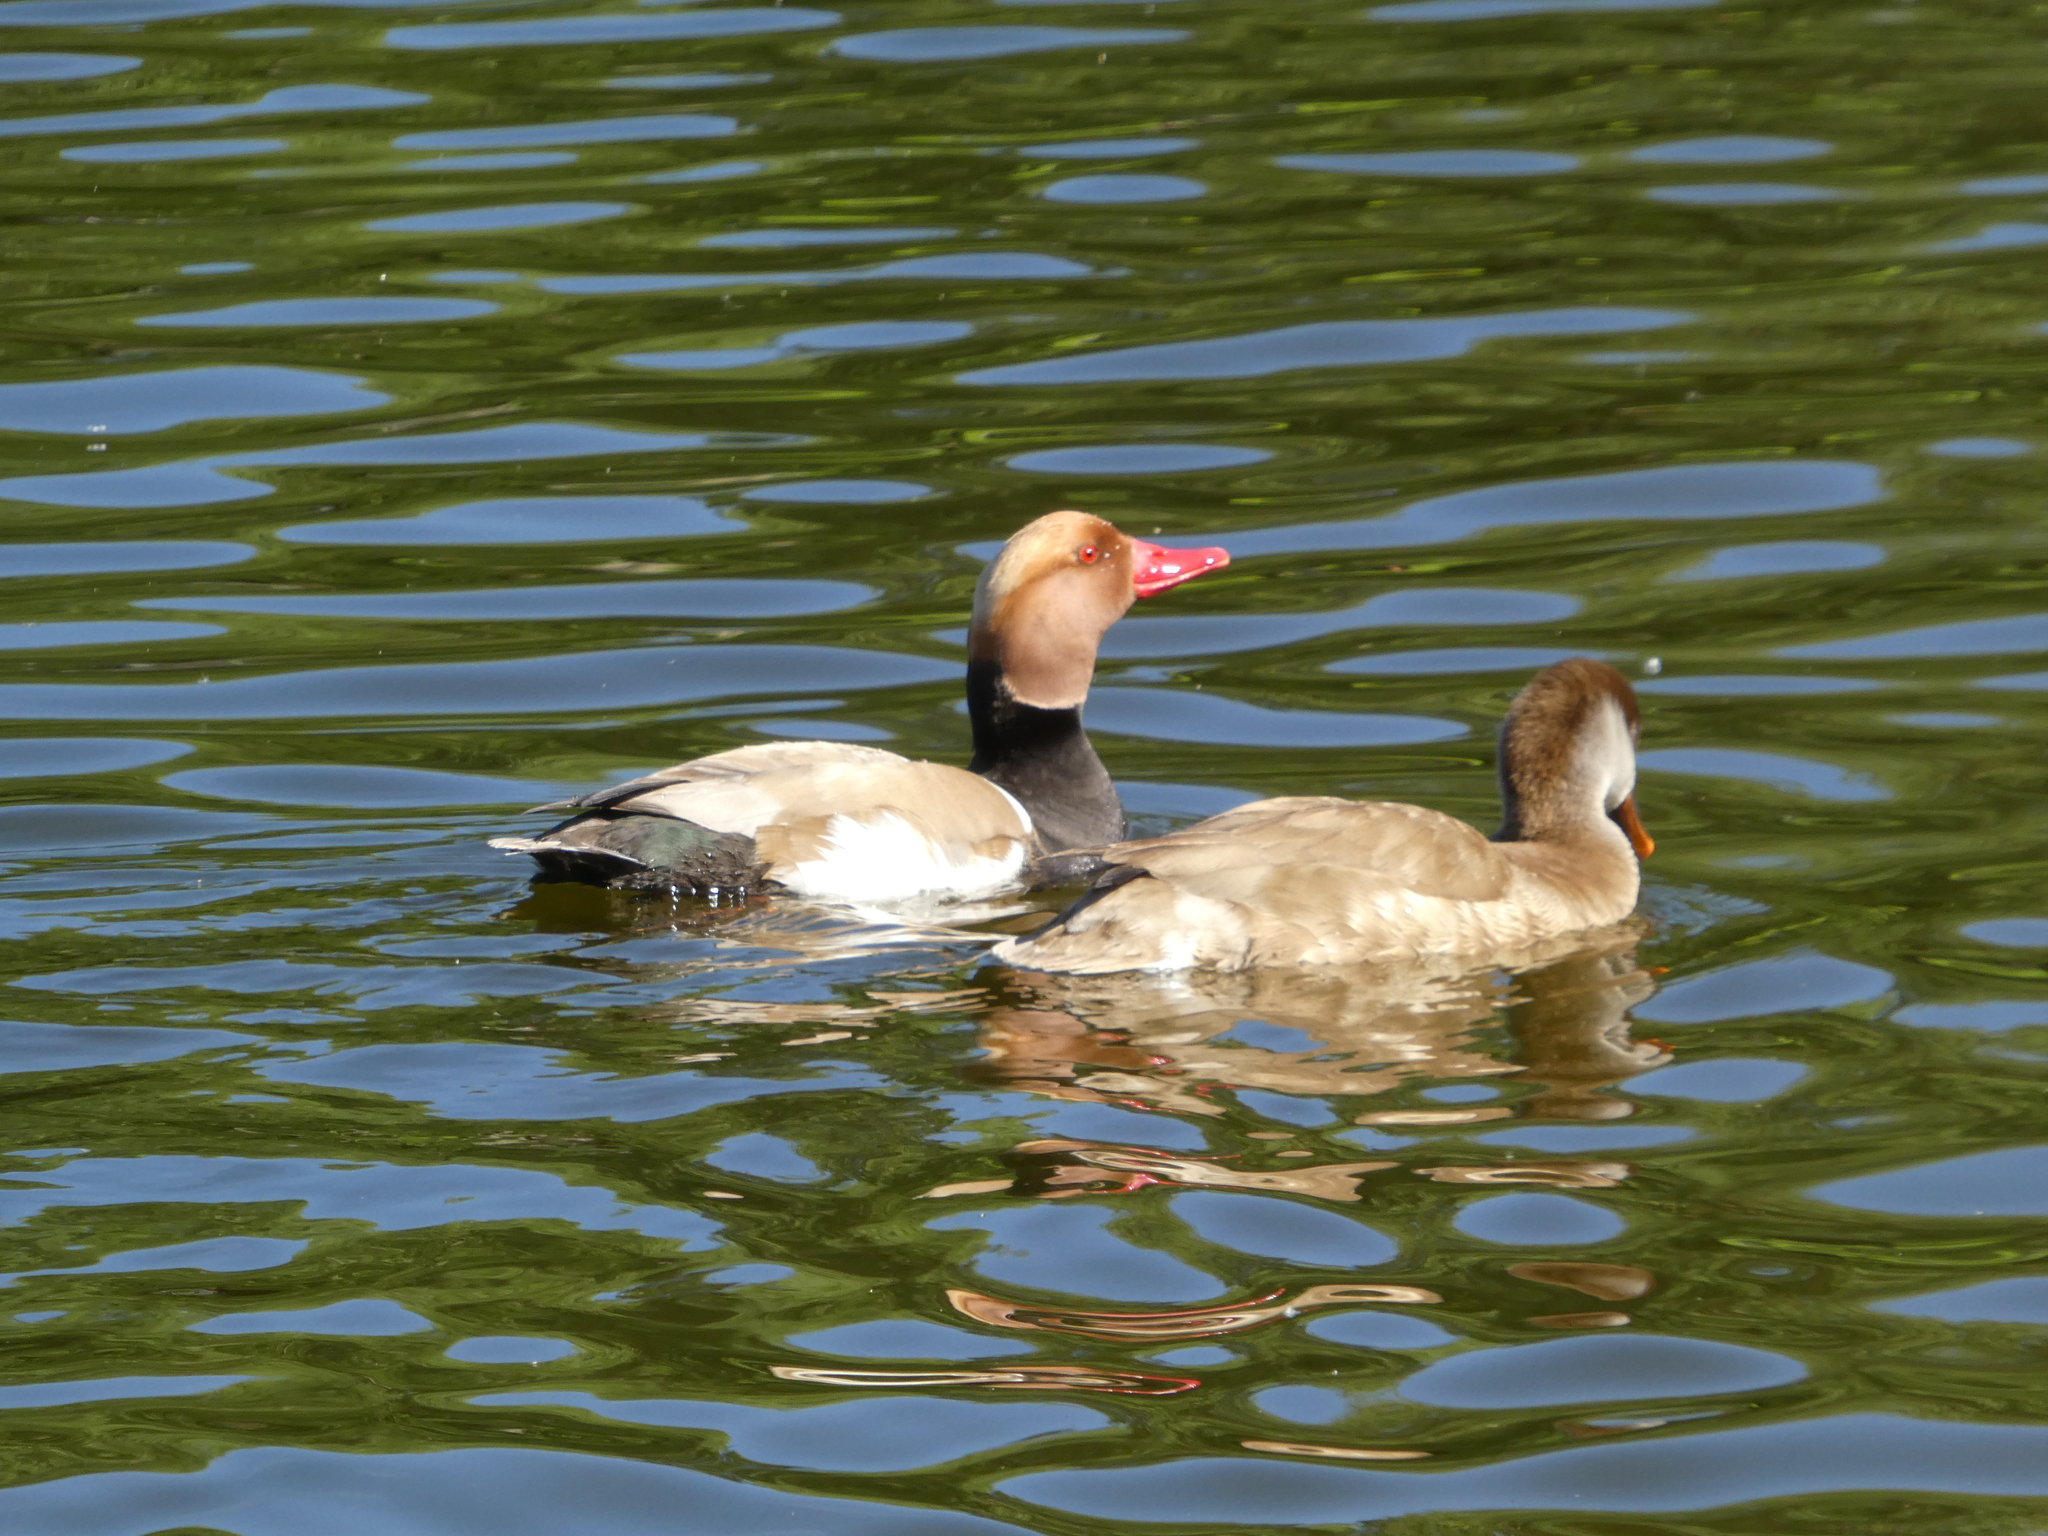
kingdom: Animalia
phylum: Chordata
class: Aves
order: Anseriformes
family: Anatidae
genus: Netta
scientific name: Netta rufina
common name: Red-crested pochard
